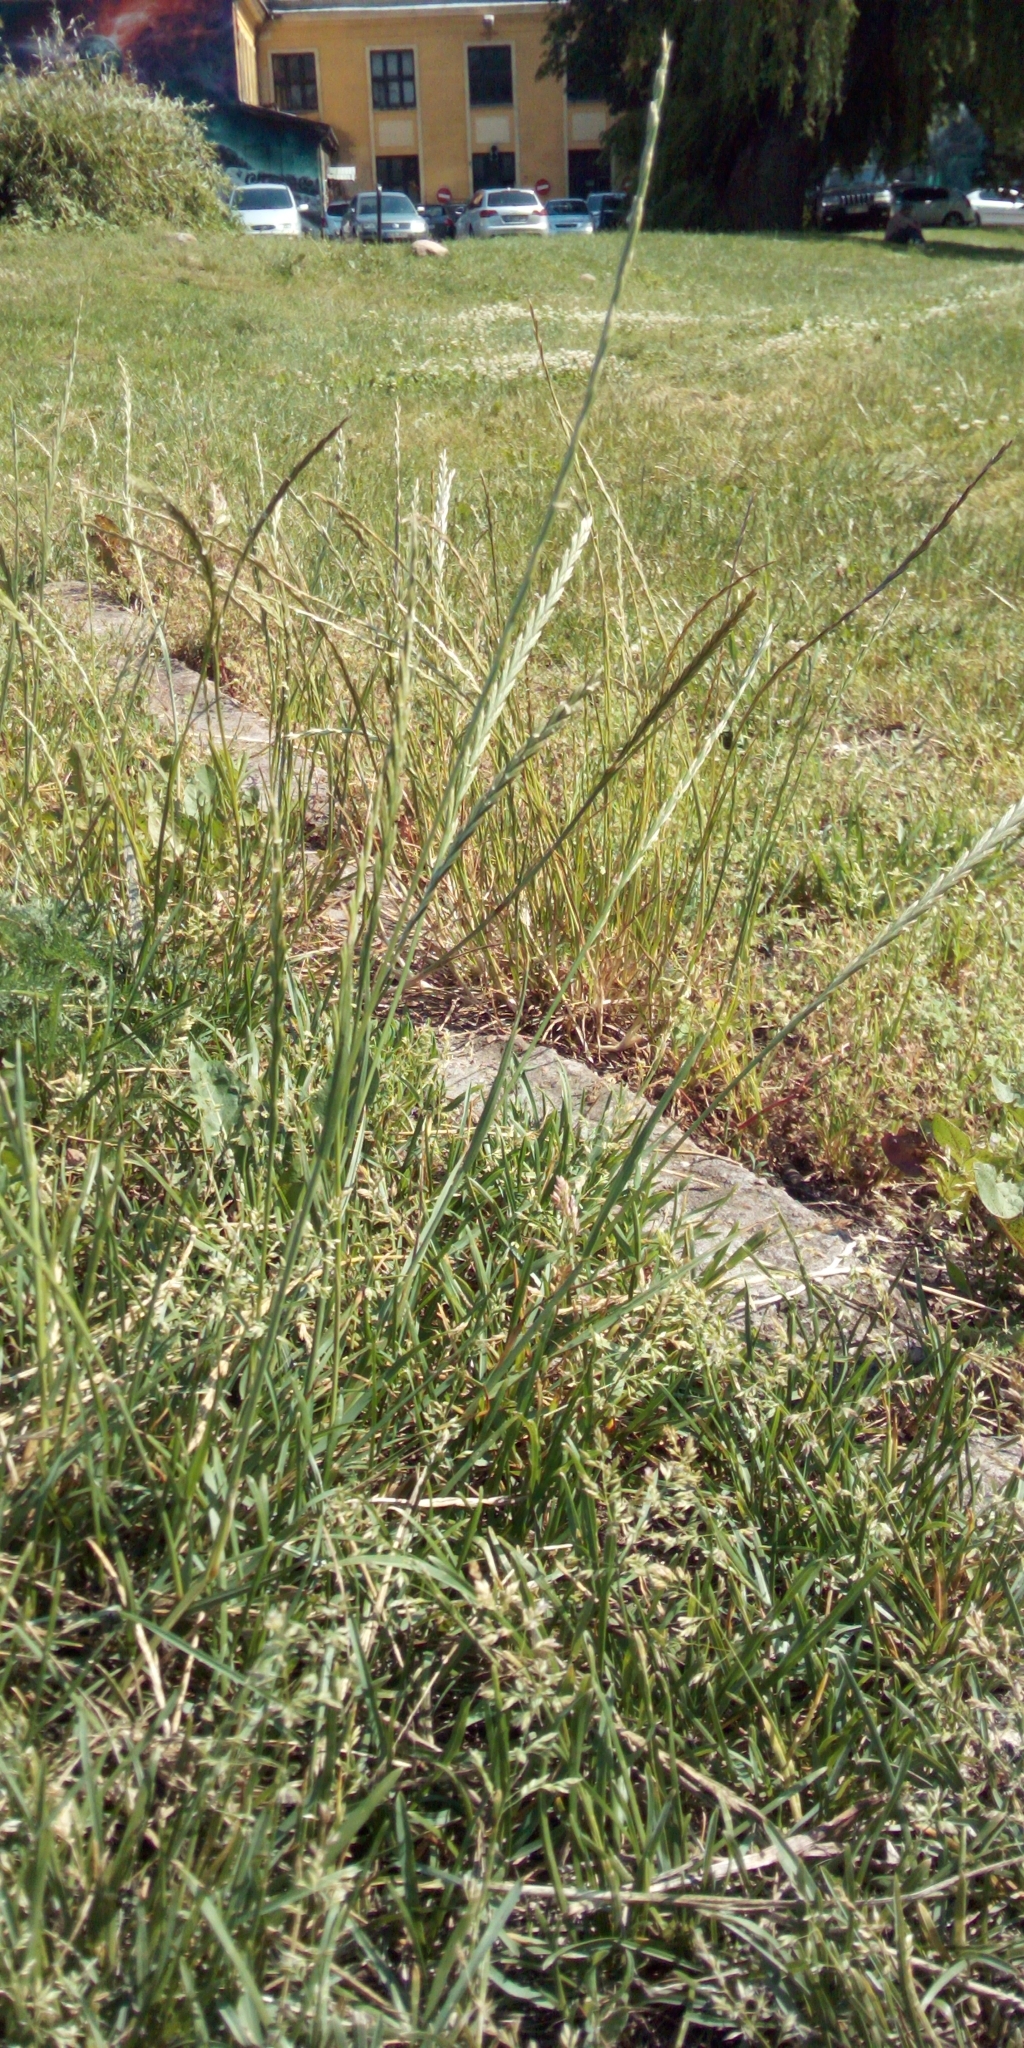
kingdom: Plantae
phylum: Tracheophyta
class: Liliopsida
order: Poales
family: Poaceae
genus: Lolium
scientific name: Lolium perenne
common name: Perennial ryegrass
